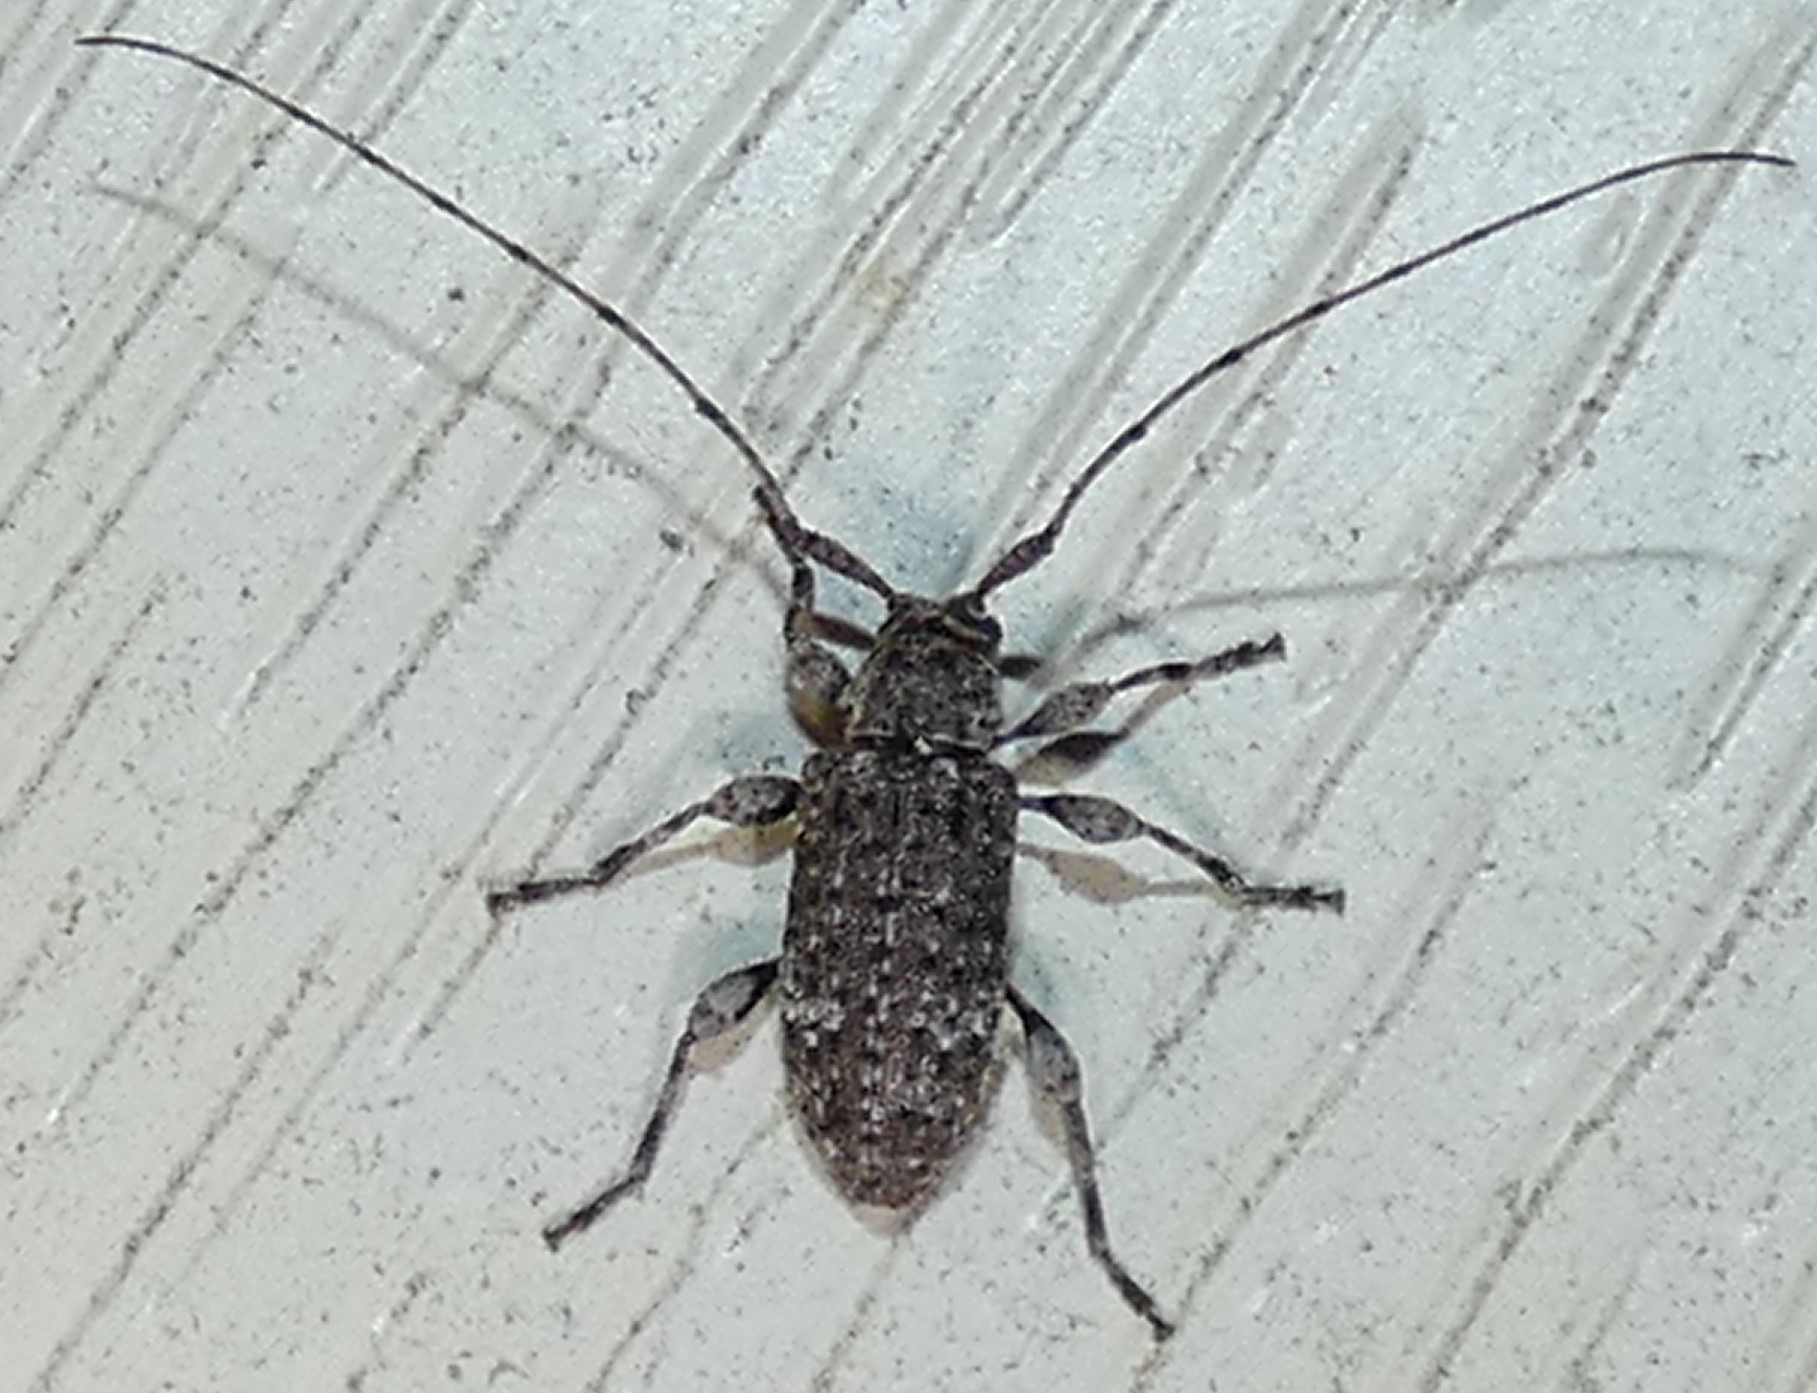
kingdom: Animalia
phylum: Arthropoda
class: Insecta
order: Coleoptera
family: Cerambycidae
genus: Astylopsis
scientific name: Astylopsis sexguttata
